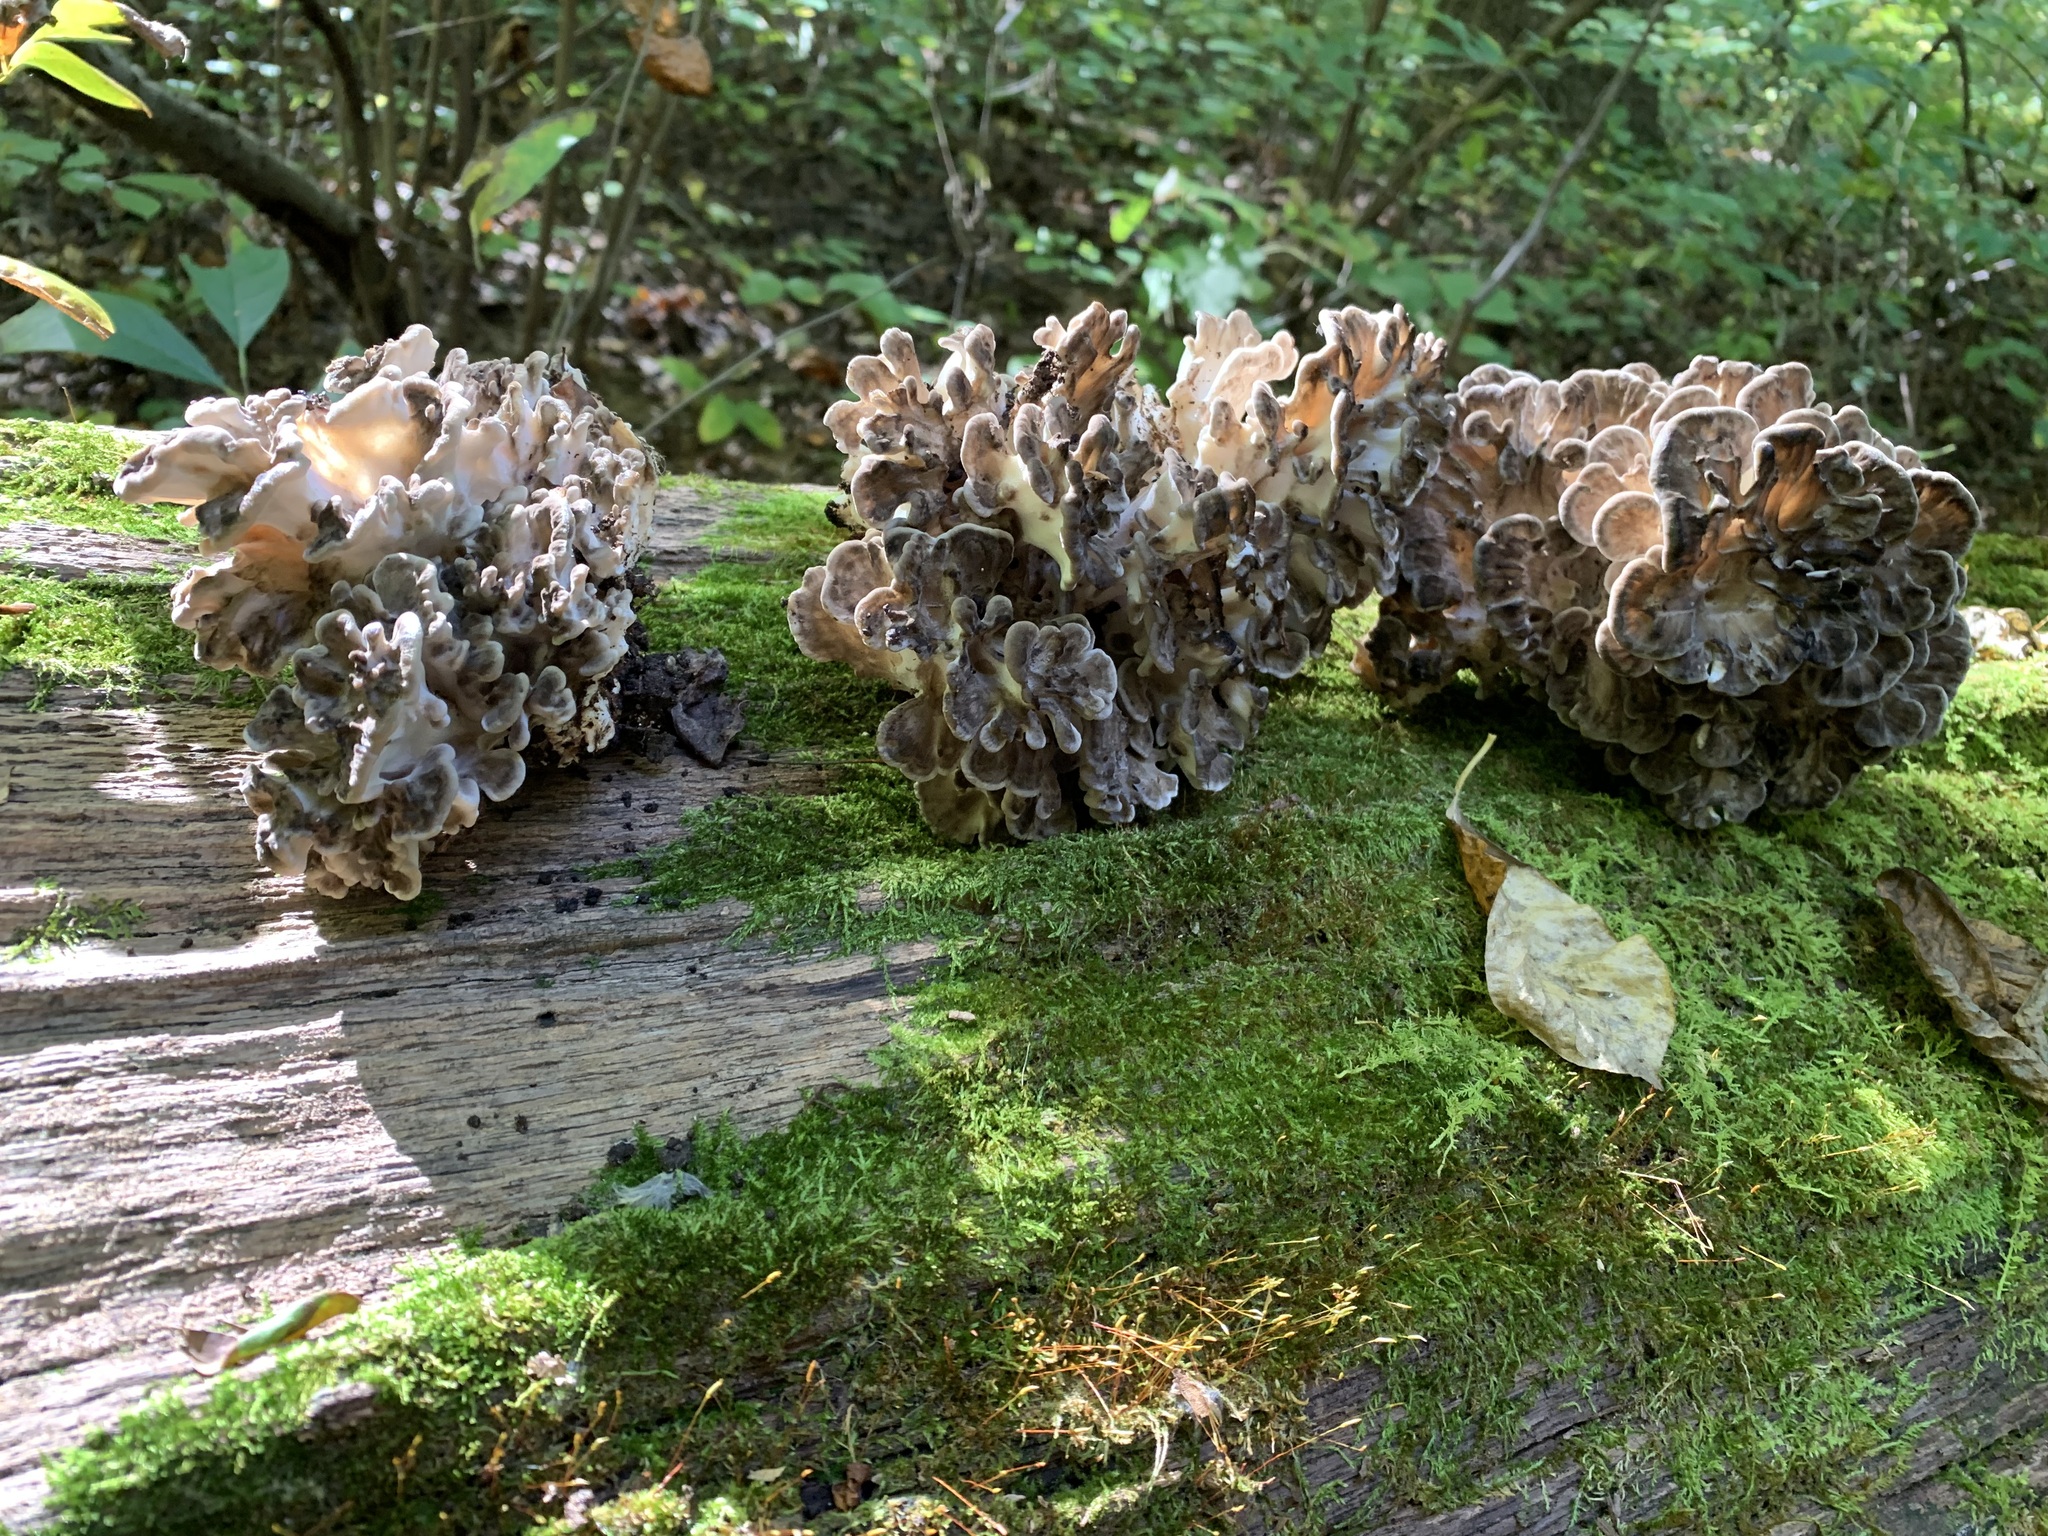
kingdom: Fungi
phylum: Basidiomycota
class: Agaricomycetes
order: Polyporales
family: Grifolaceae
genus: Grifola
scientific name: Grifola frondosa
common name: Hen of the woods
